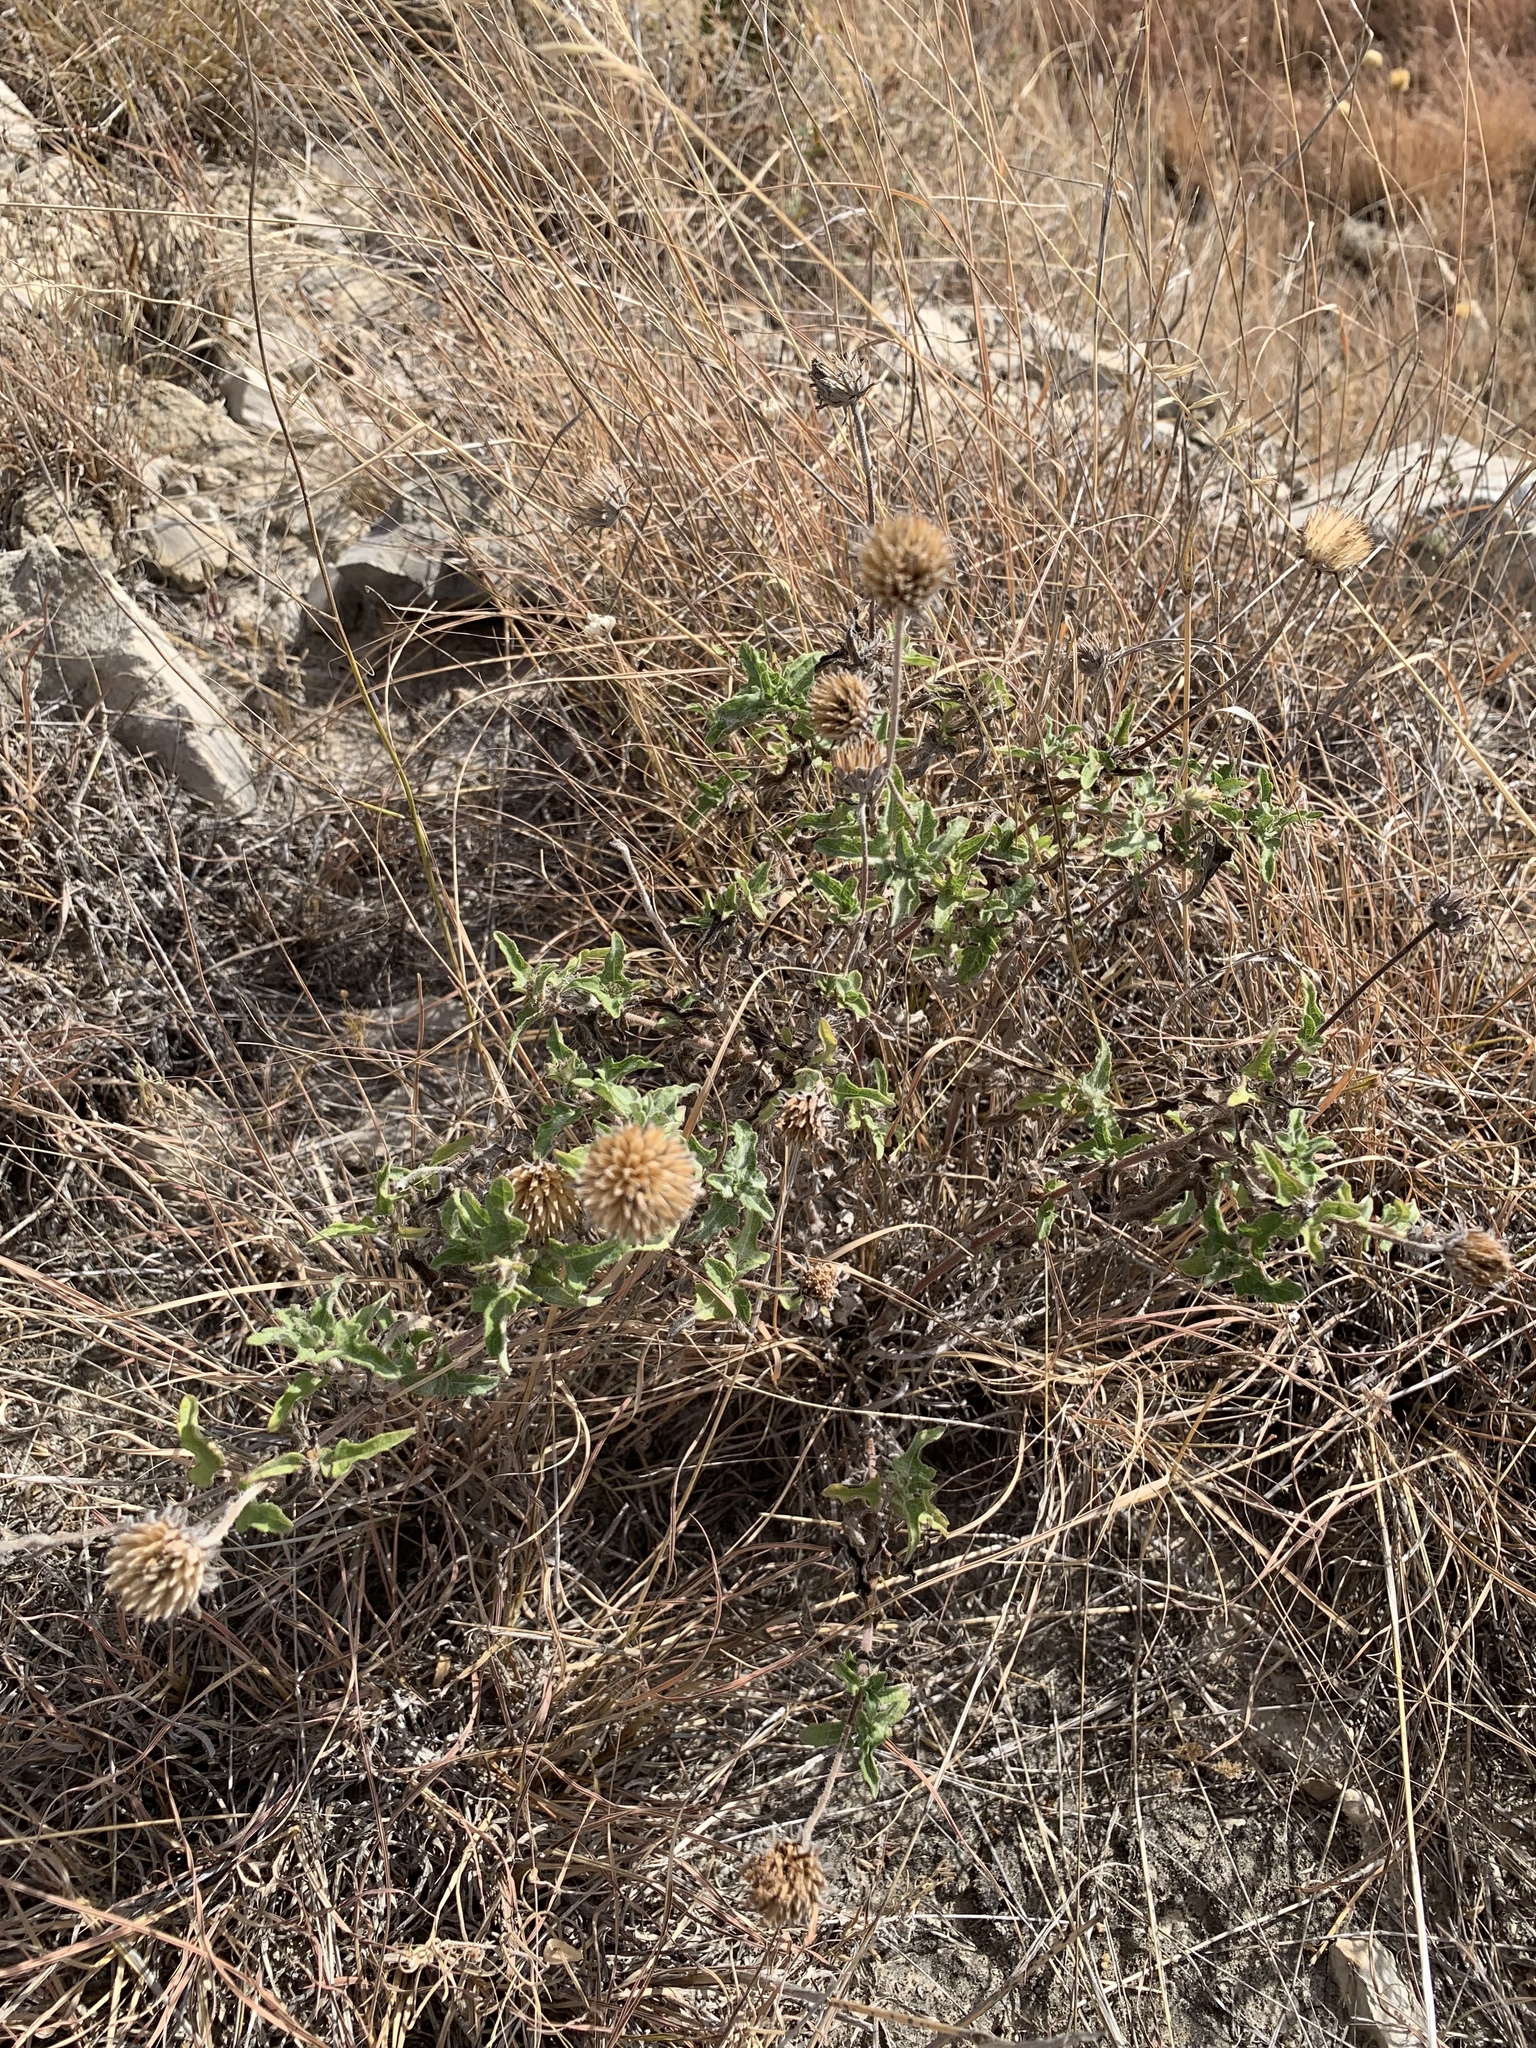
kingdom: Plantae
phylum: Tracheophyta
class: Magnoliopsida
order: Asterales
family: Asteraceae
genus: Simsia
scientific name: Simsia calva
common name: Awnless bush-sunflower
